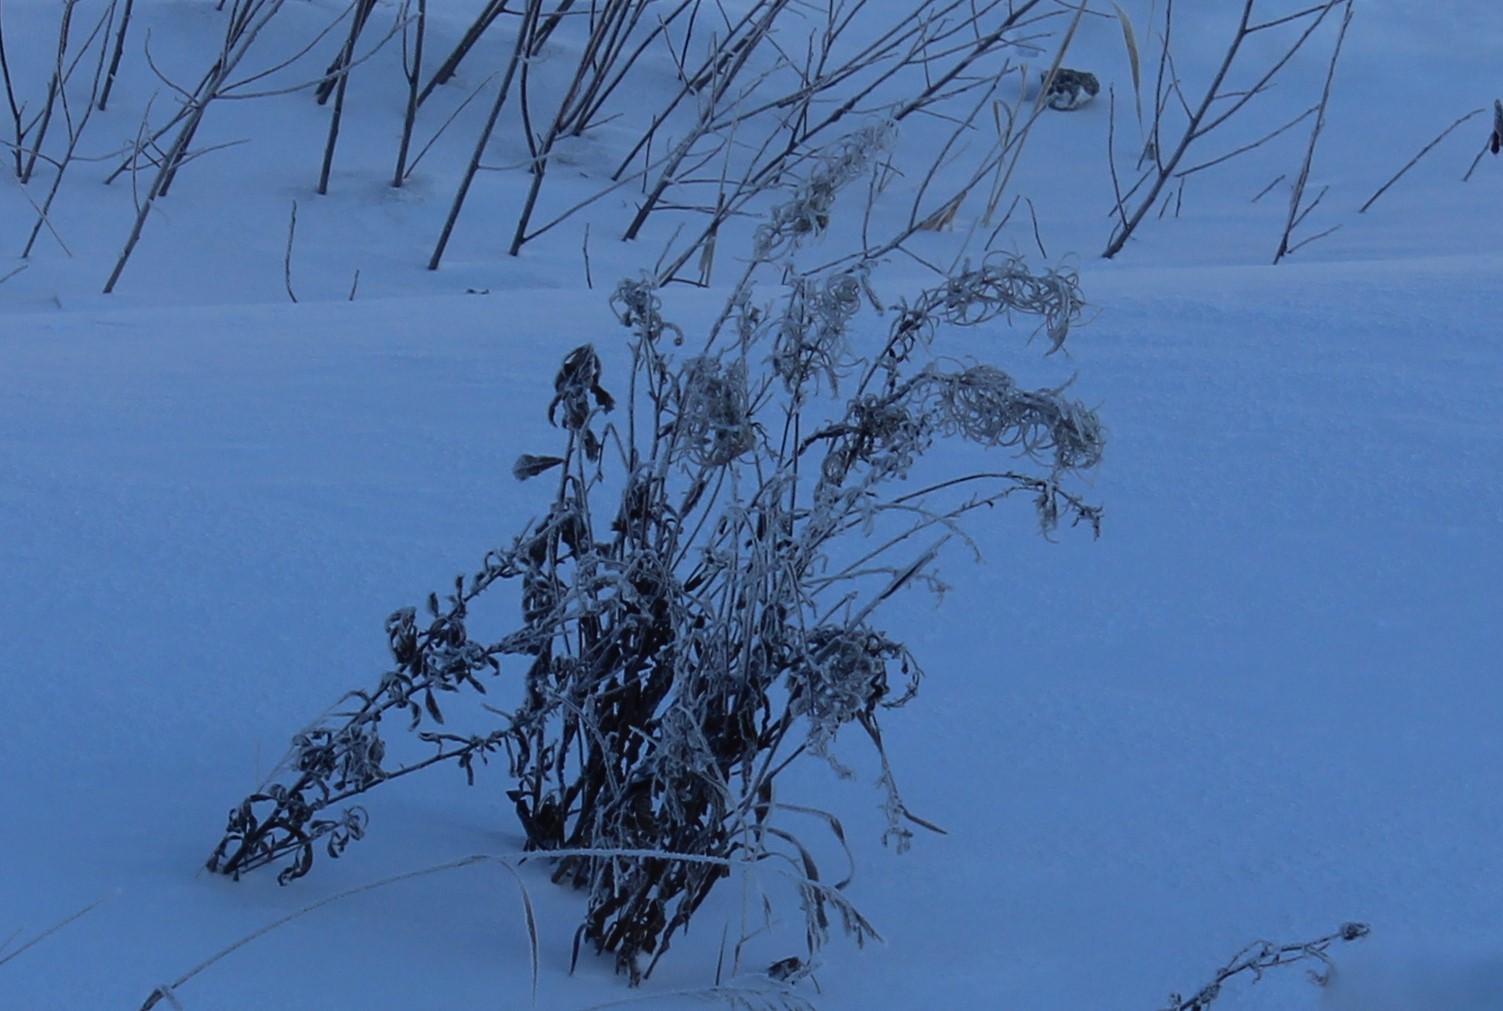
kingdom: Plantae
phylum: Tracheophyta
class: Magnoliopsida
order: Myrtales
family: Onagraceae
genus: Chamaenerion
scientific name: Chamaenerion angustifolium
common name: Fireweed
